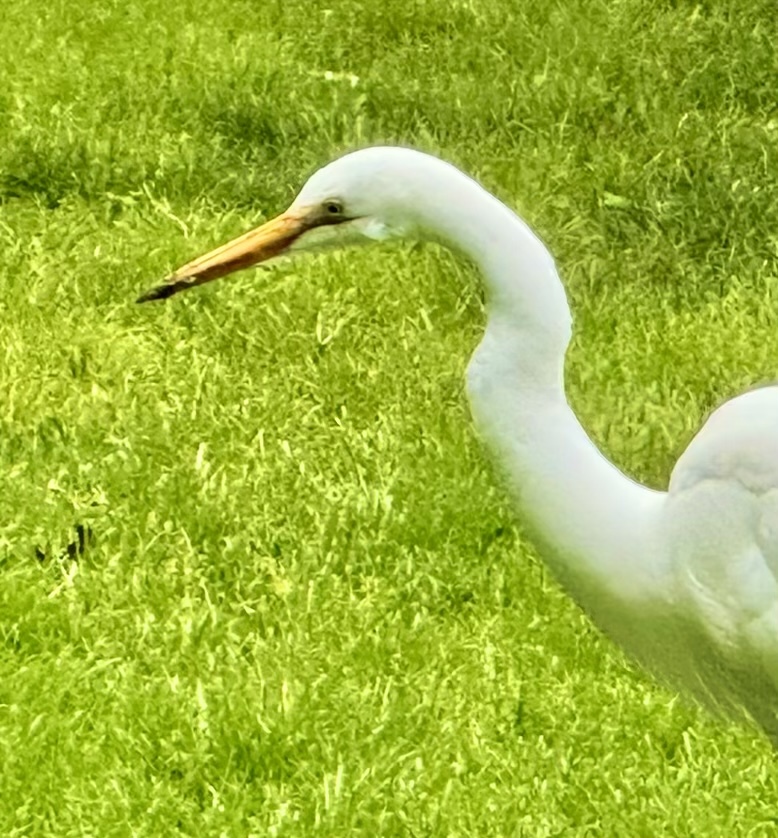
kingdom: Animalia
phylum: Chordata
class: Aves
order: Pelecaniformes
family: Ardeidae
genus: Ardea
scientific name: Ardea alba
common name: Great egret
